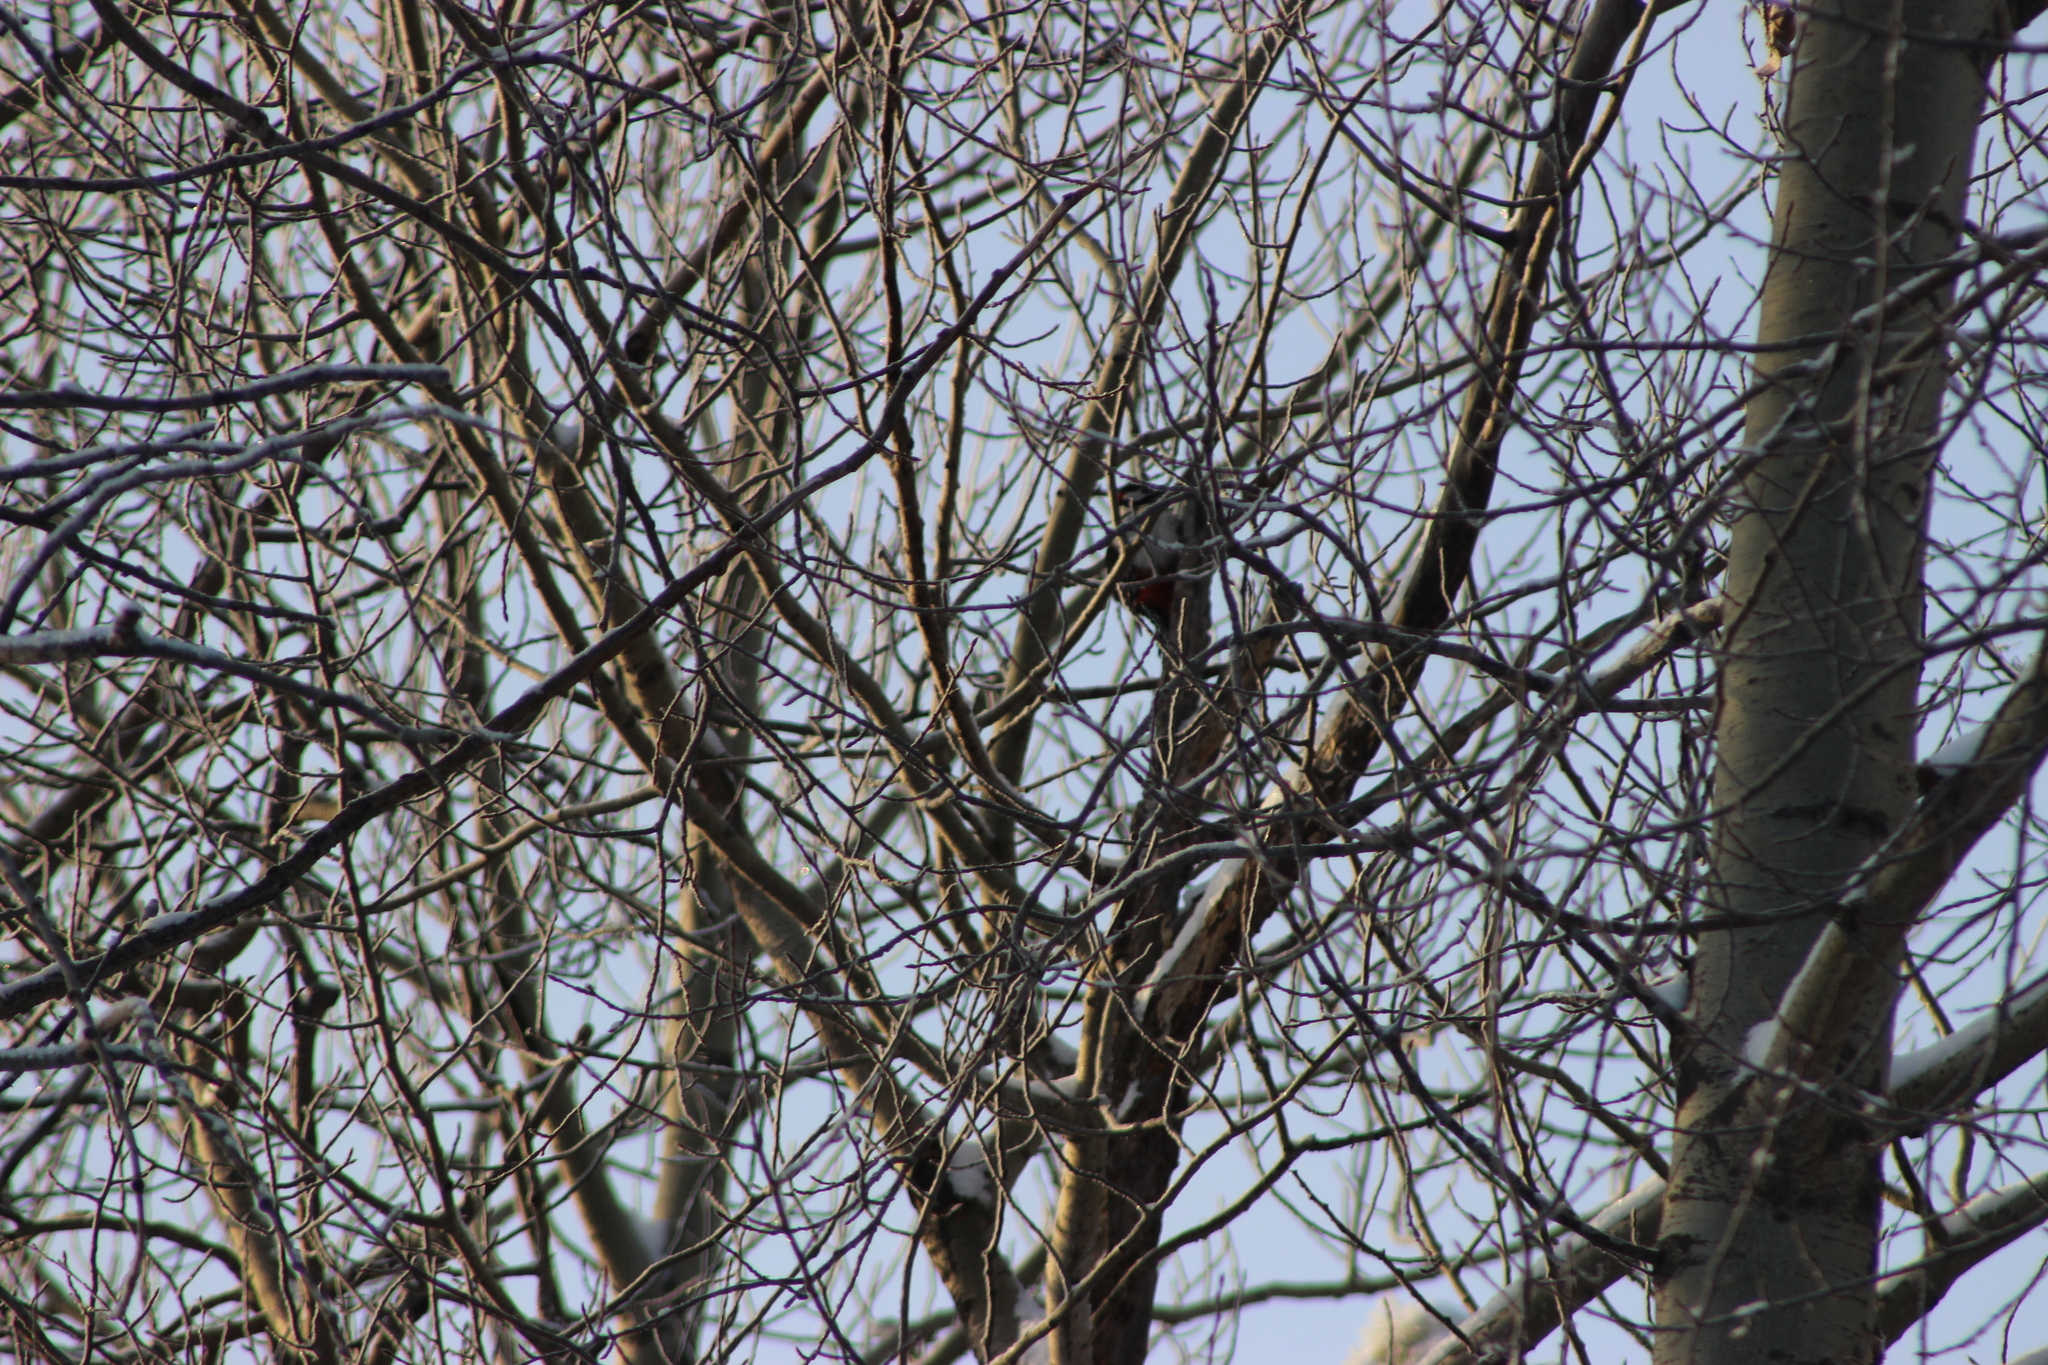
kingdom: Animalia
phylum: Chordata
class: Aves
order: Piciformes
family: Picidae
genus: Dendrocopos
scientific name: Dendrocopos major
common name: Great spotted woodpecker
